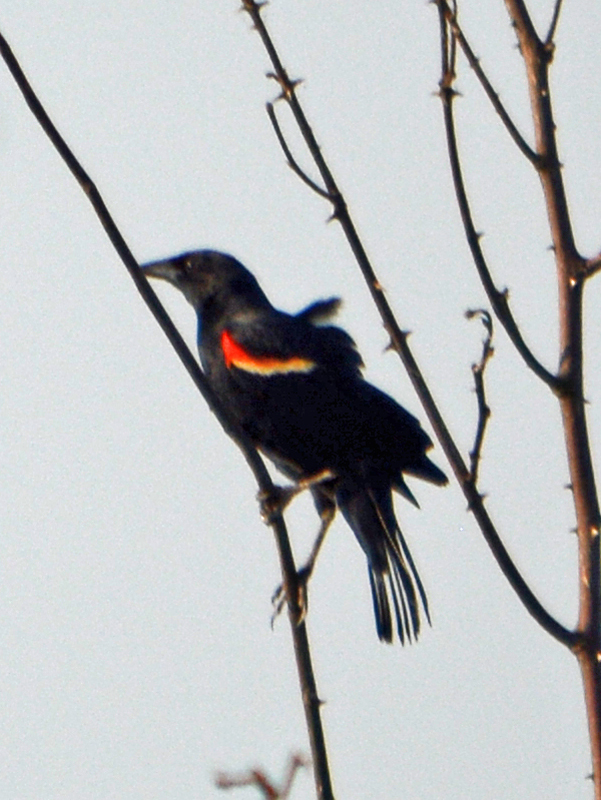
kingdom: Animalia
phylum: Chordata
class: Aves
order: Passeriformes
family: Icteridae
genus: Agelaius
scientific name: Agelaius phoeniceus
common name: Red-winged blackbird
